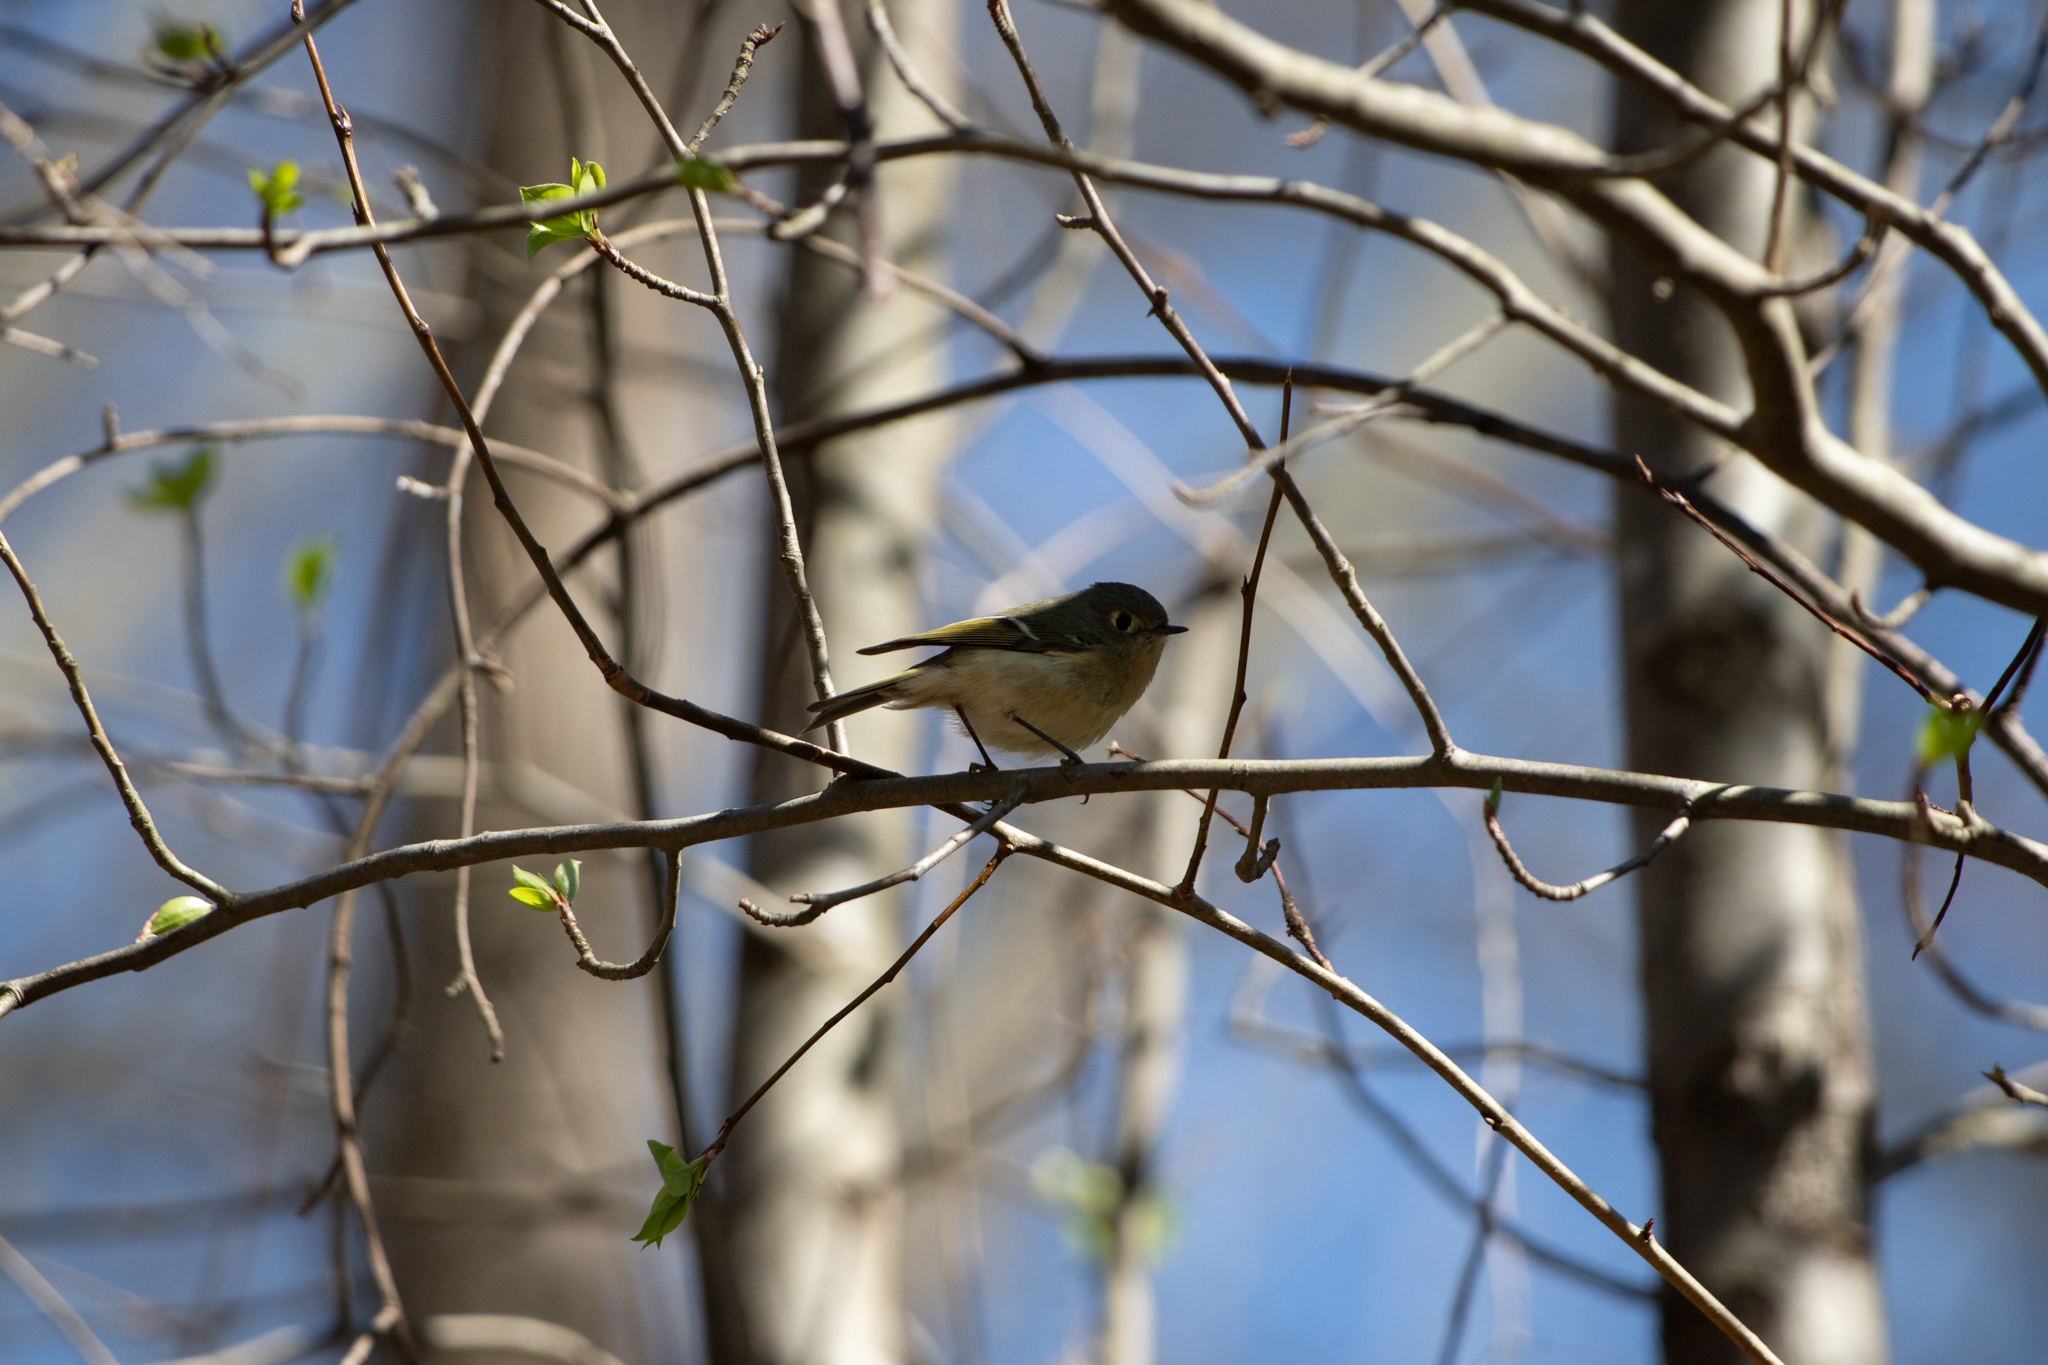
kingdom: Animalia
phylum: Chordata
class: Aves
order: Passeriformes
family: Regulidae
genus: Regulus
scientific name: Regulus calendula
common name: Ruby-crowned kinglet
